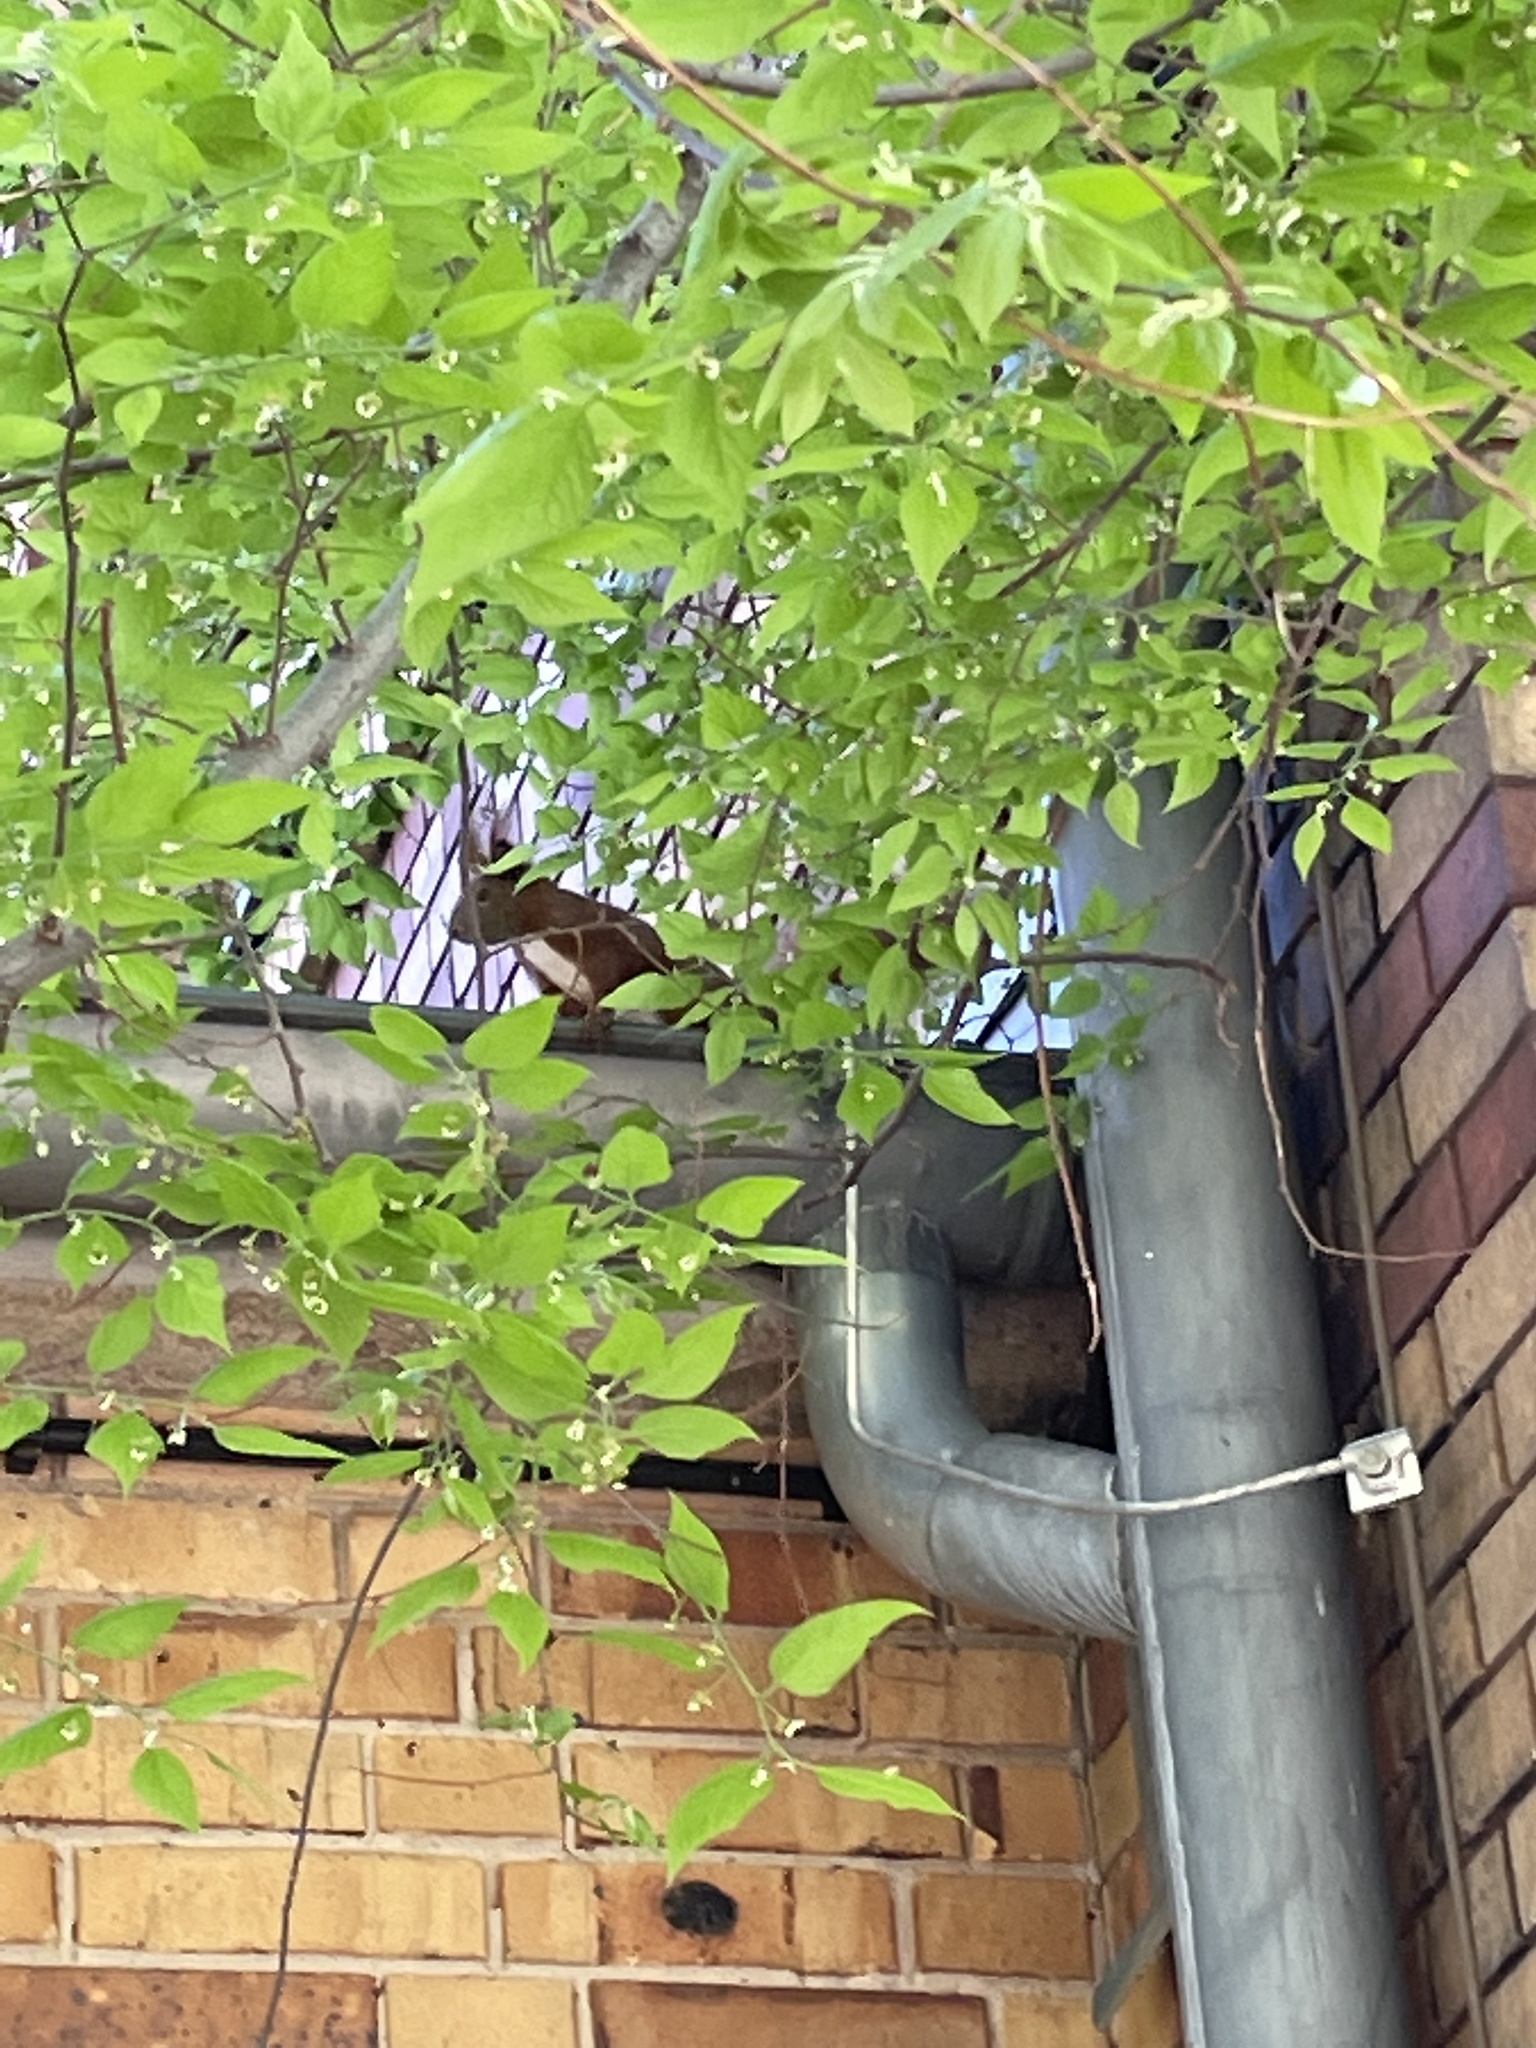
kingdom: Animalia
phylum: Chordata
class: Mammalia
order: Rodentia
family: Sciuridae
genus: Sciurus
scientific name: Sciurus vulgaris
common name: Eurasian red squirrel
